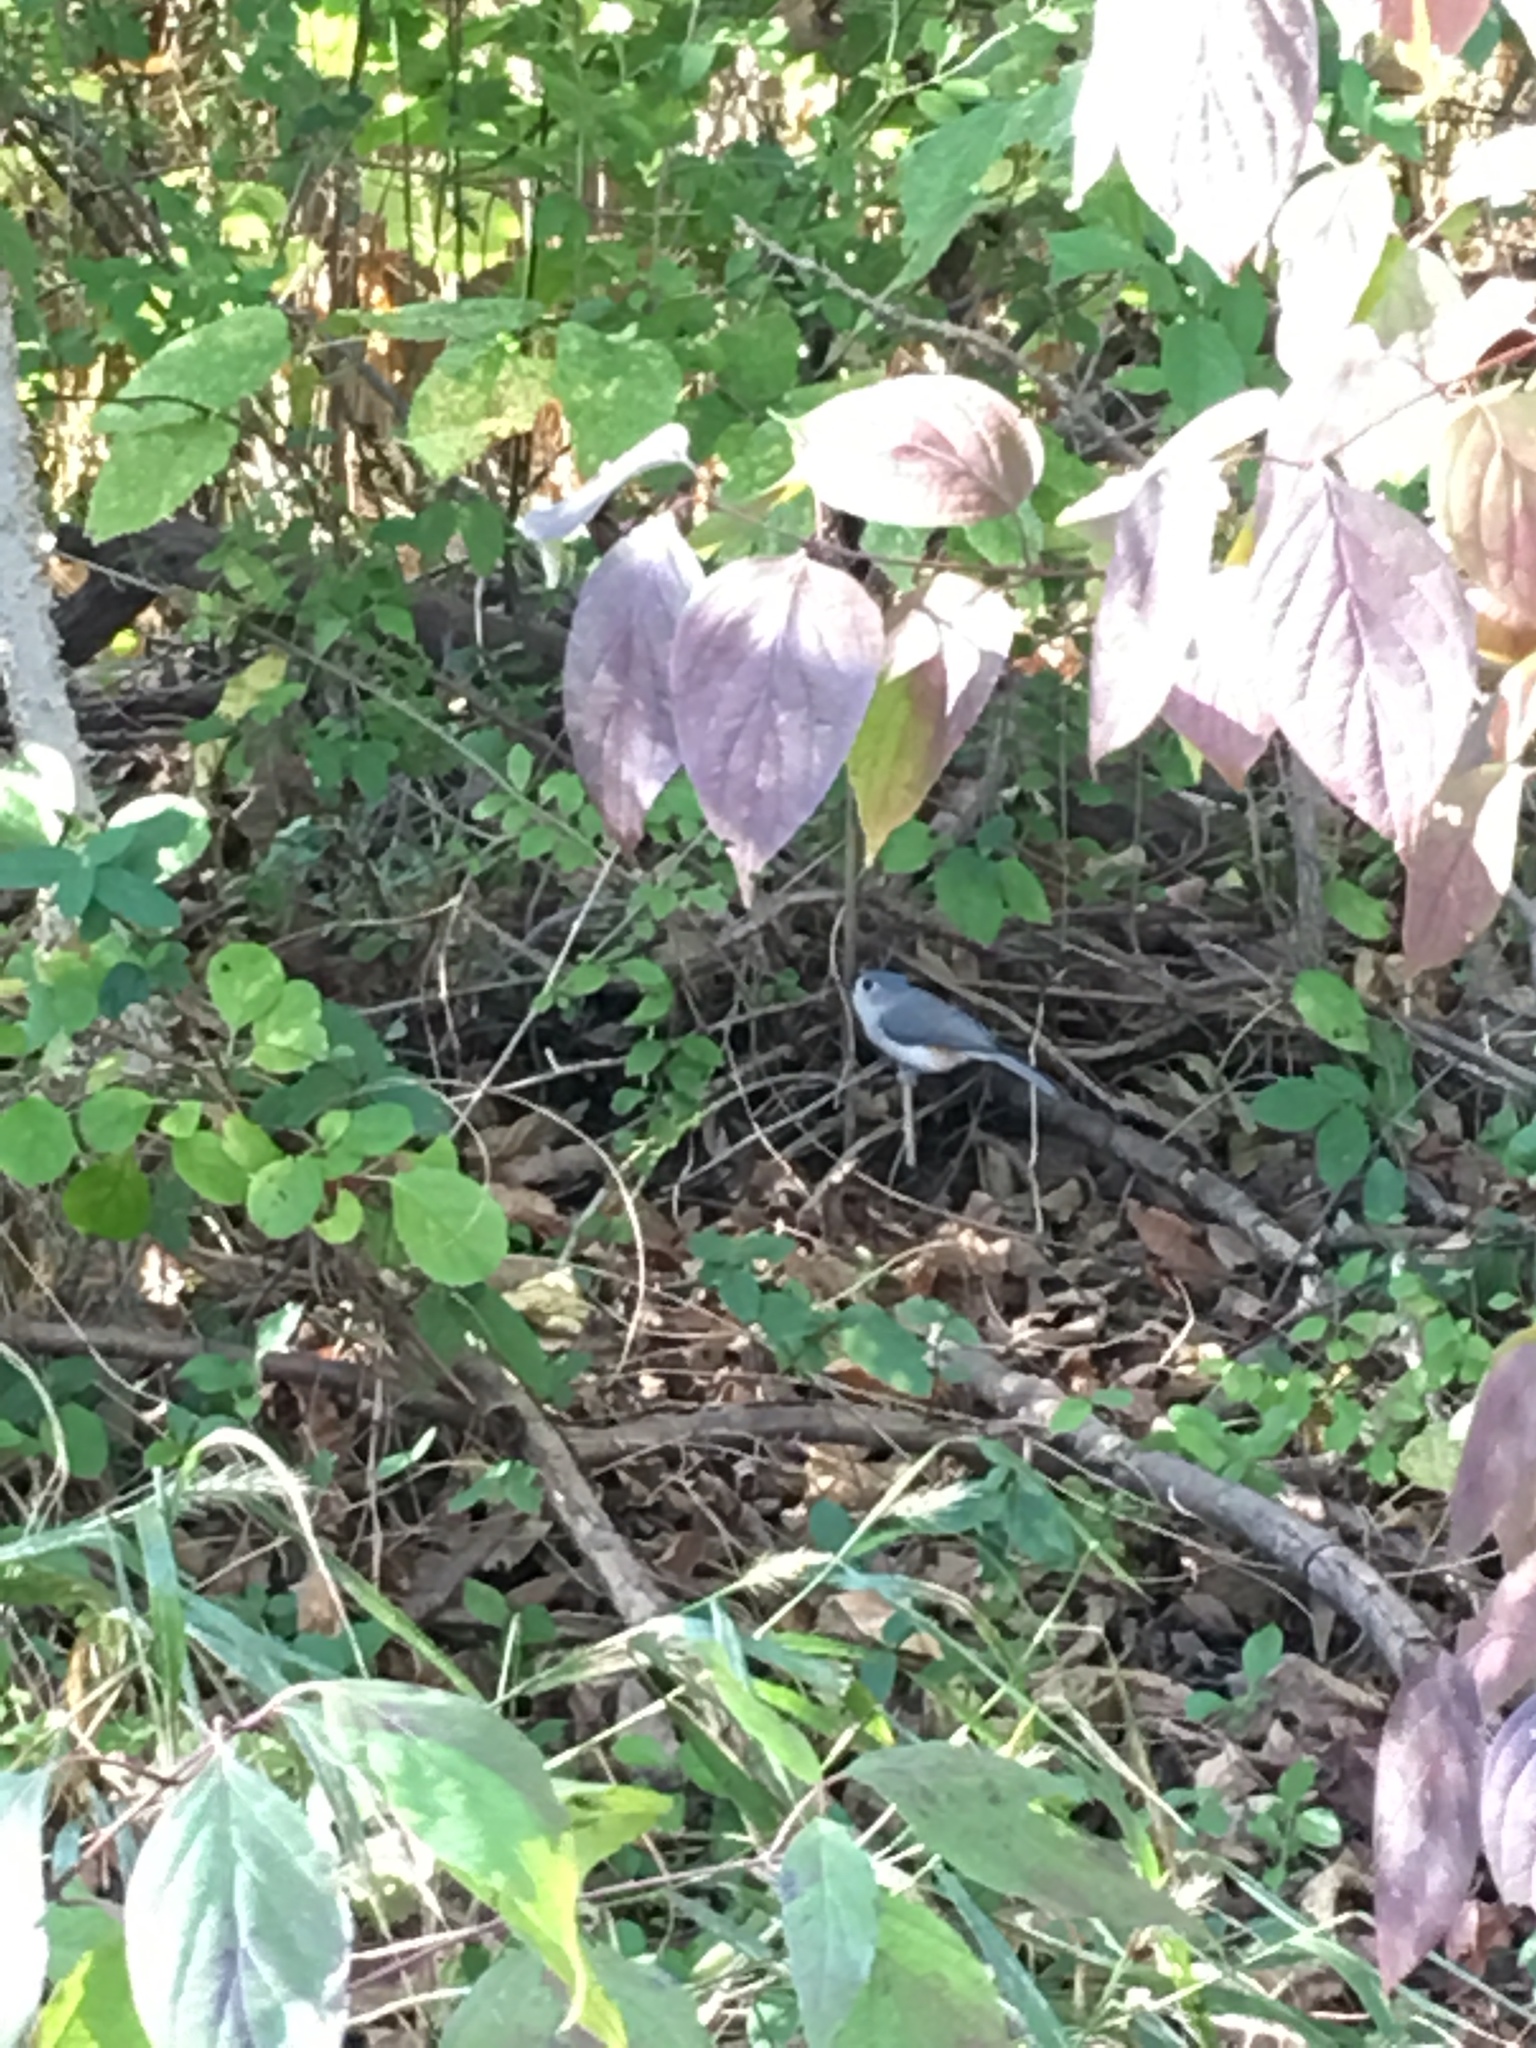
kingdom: Animalia
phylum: Chordata
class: Aves
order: Passeriformes
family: Paridae
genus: Baeolophus
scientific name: Baeolophus bicolor
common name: Tufted titmouse
